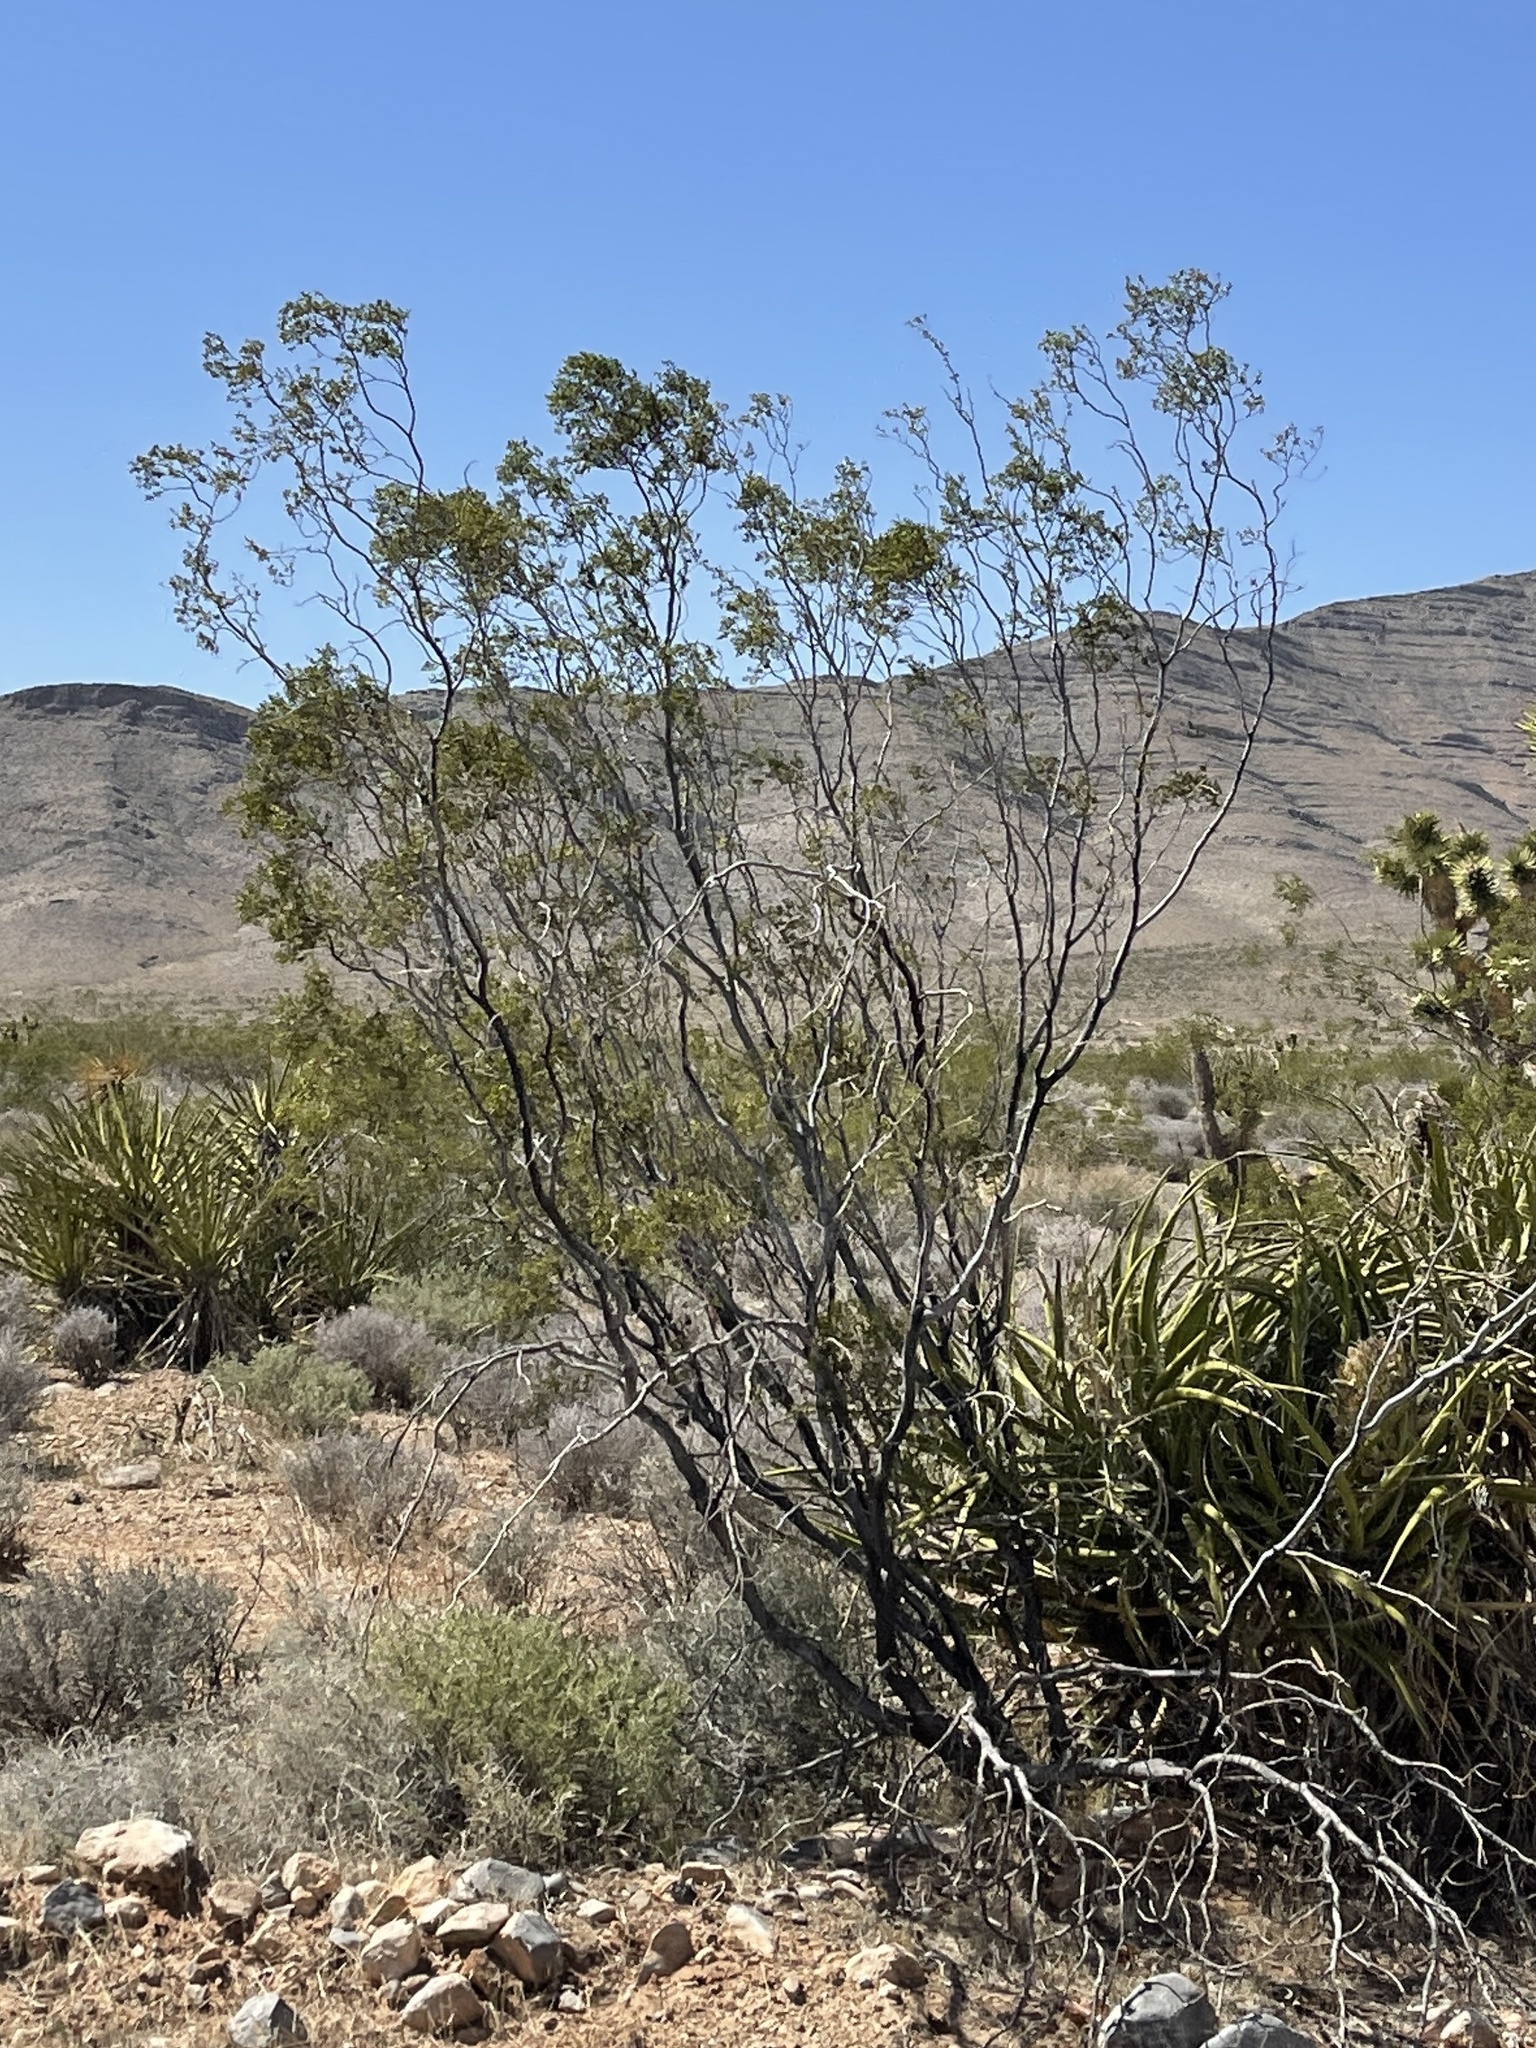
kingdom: Plantae
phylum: Tracheophyta
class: Magnoliopsida
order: Zygophyllales
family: Zygophyllaceae
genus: Larrea
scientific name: Larrea tridentata
